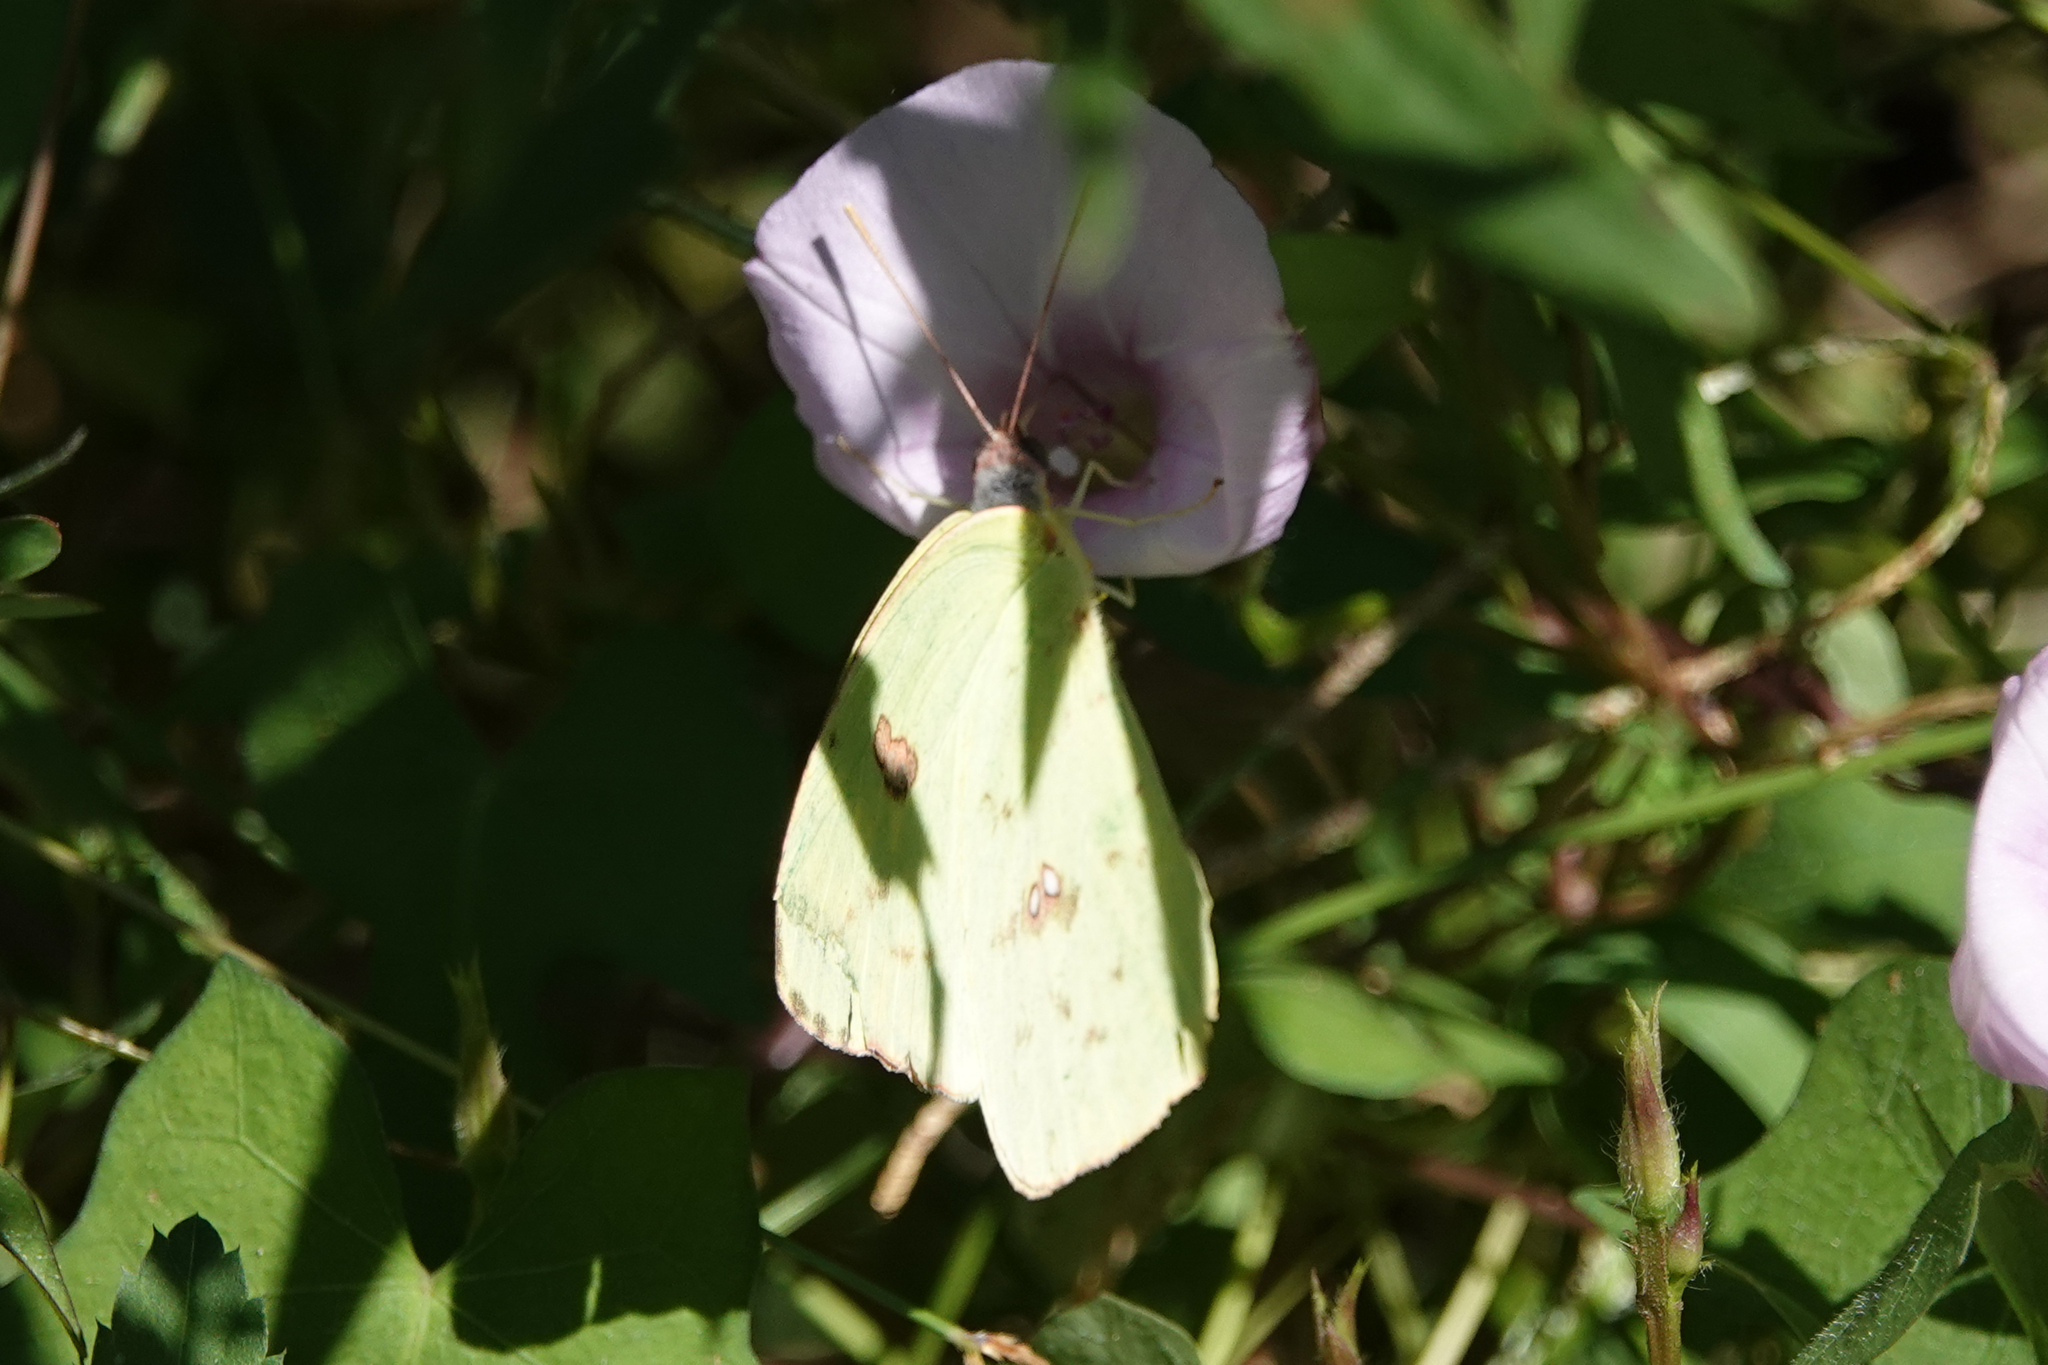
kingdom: Animalia
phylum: Arthropoda
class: Insecta
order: Lepidoptera
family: Pieridae
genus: Phoebis
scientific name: Phoebis sennae
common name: Cloudless sulphur
